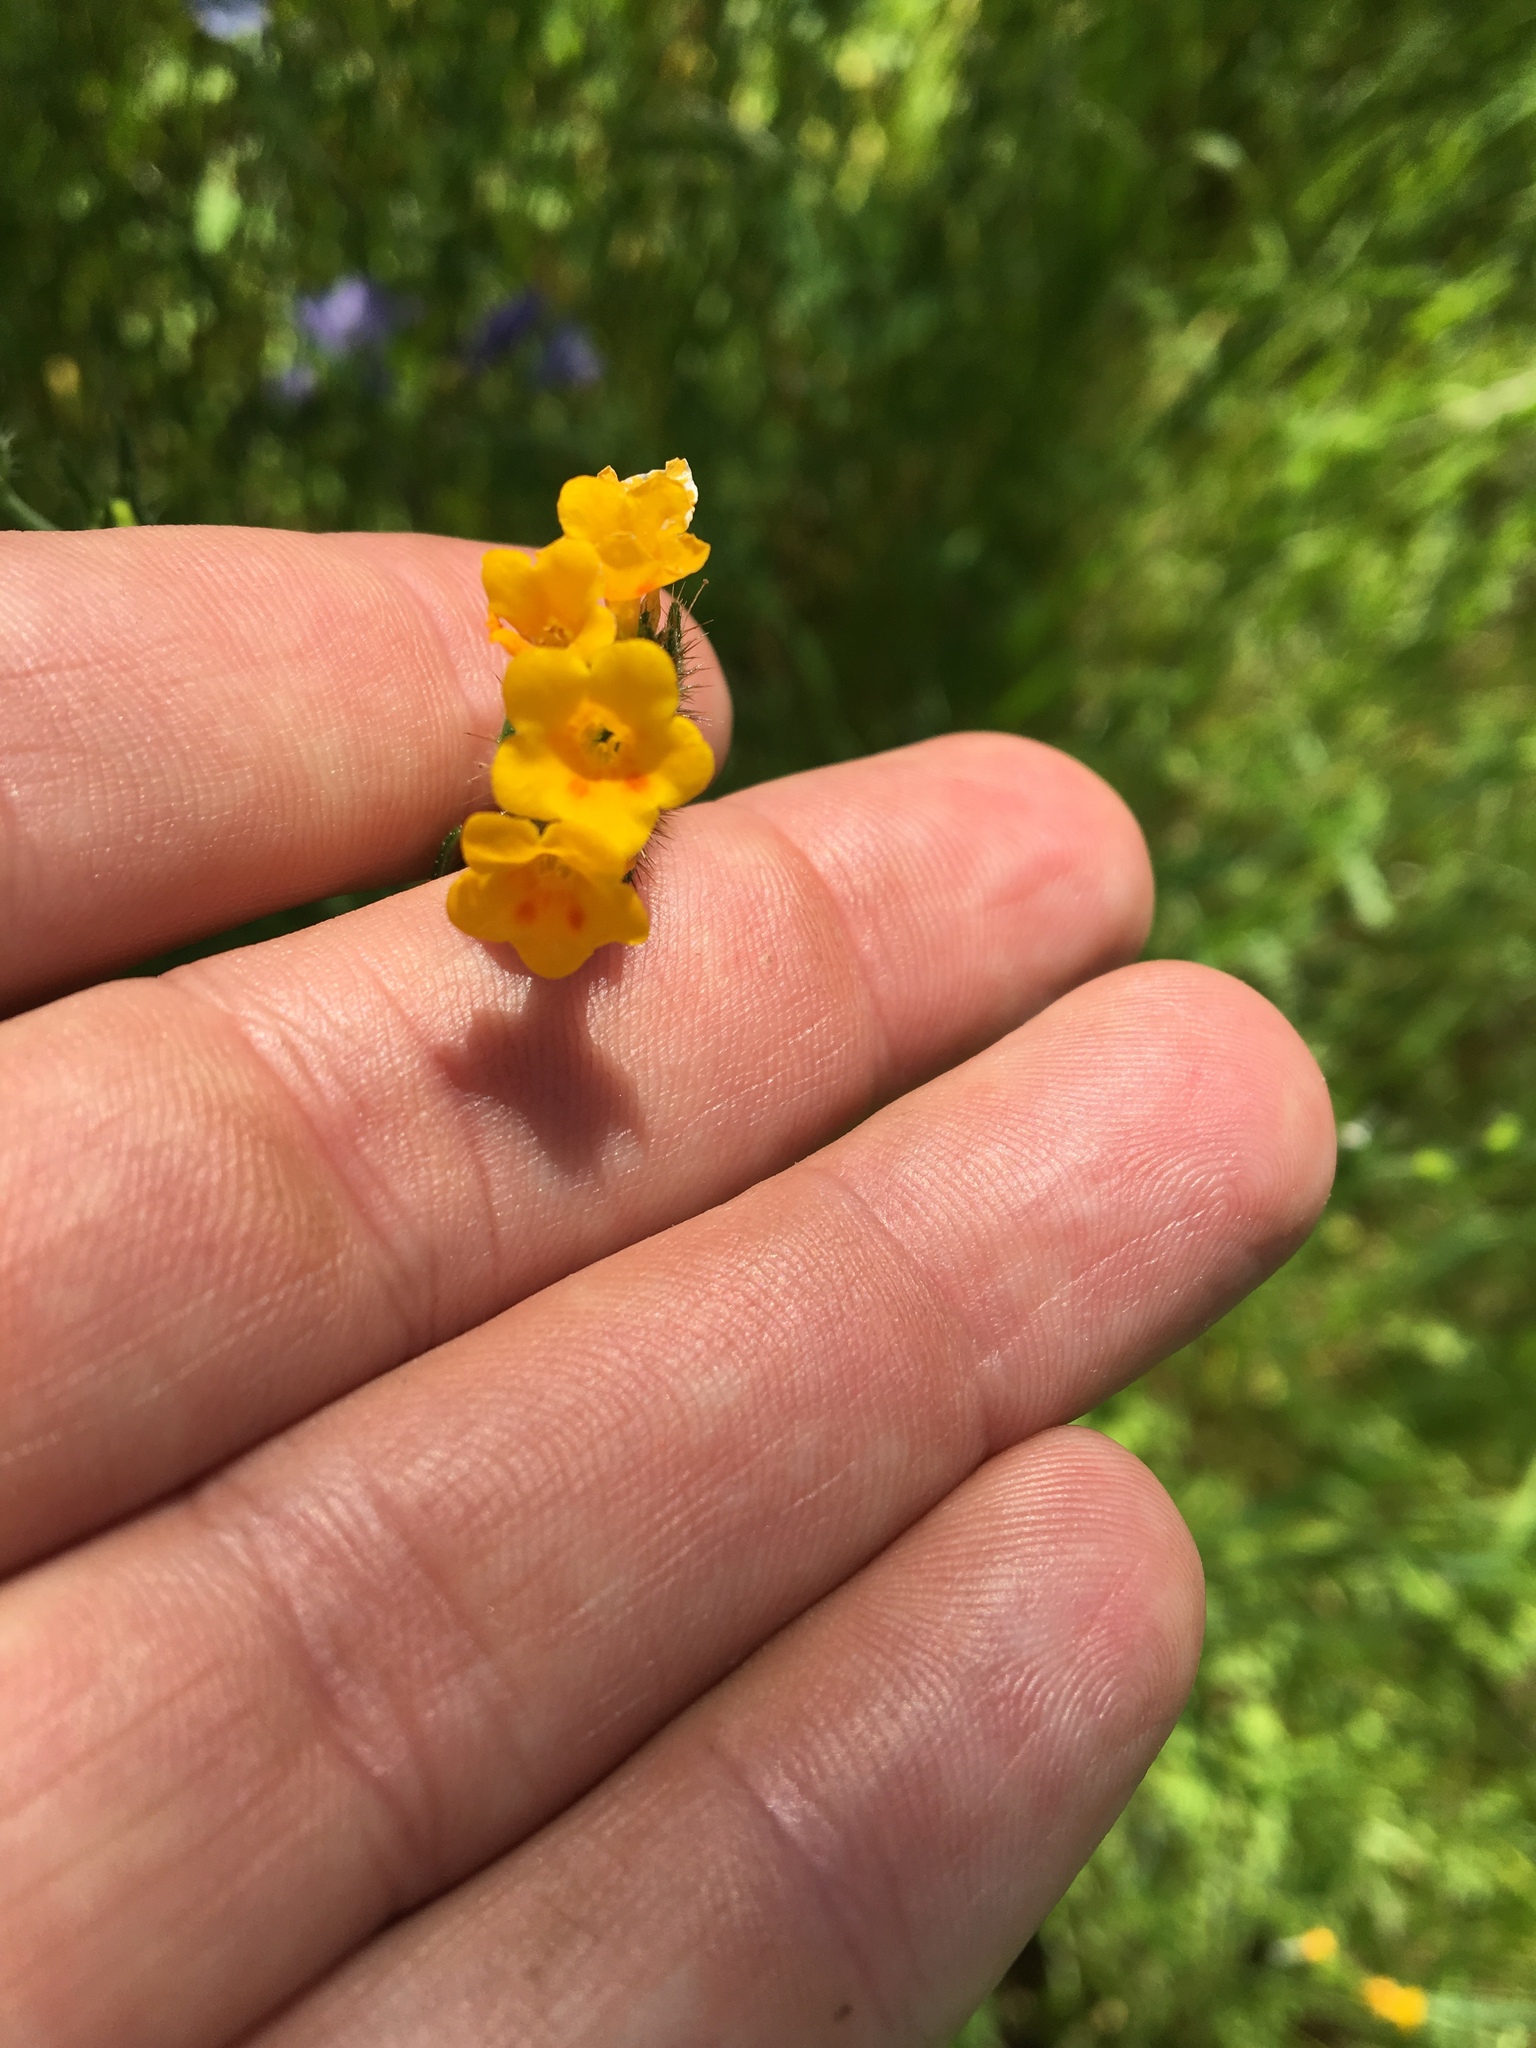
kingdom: Plantae
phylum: Tracheophyta
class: Magnoliopsida
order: Boraginales
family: Boraginaceae
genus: Amsinckia
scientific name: Amsinckia menziesii
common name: Menzies' fiddleneck
